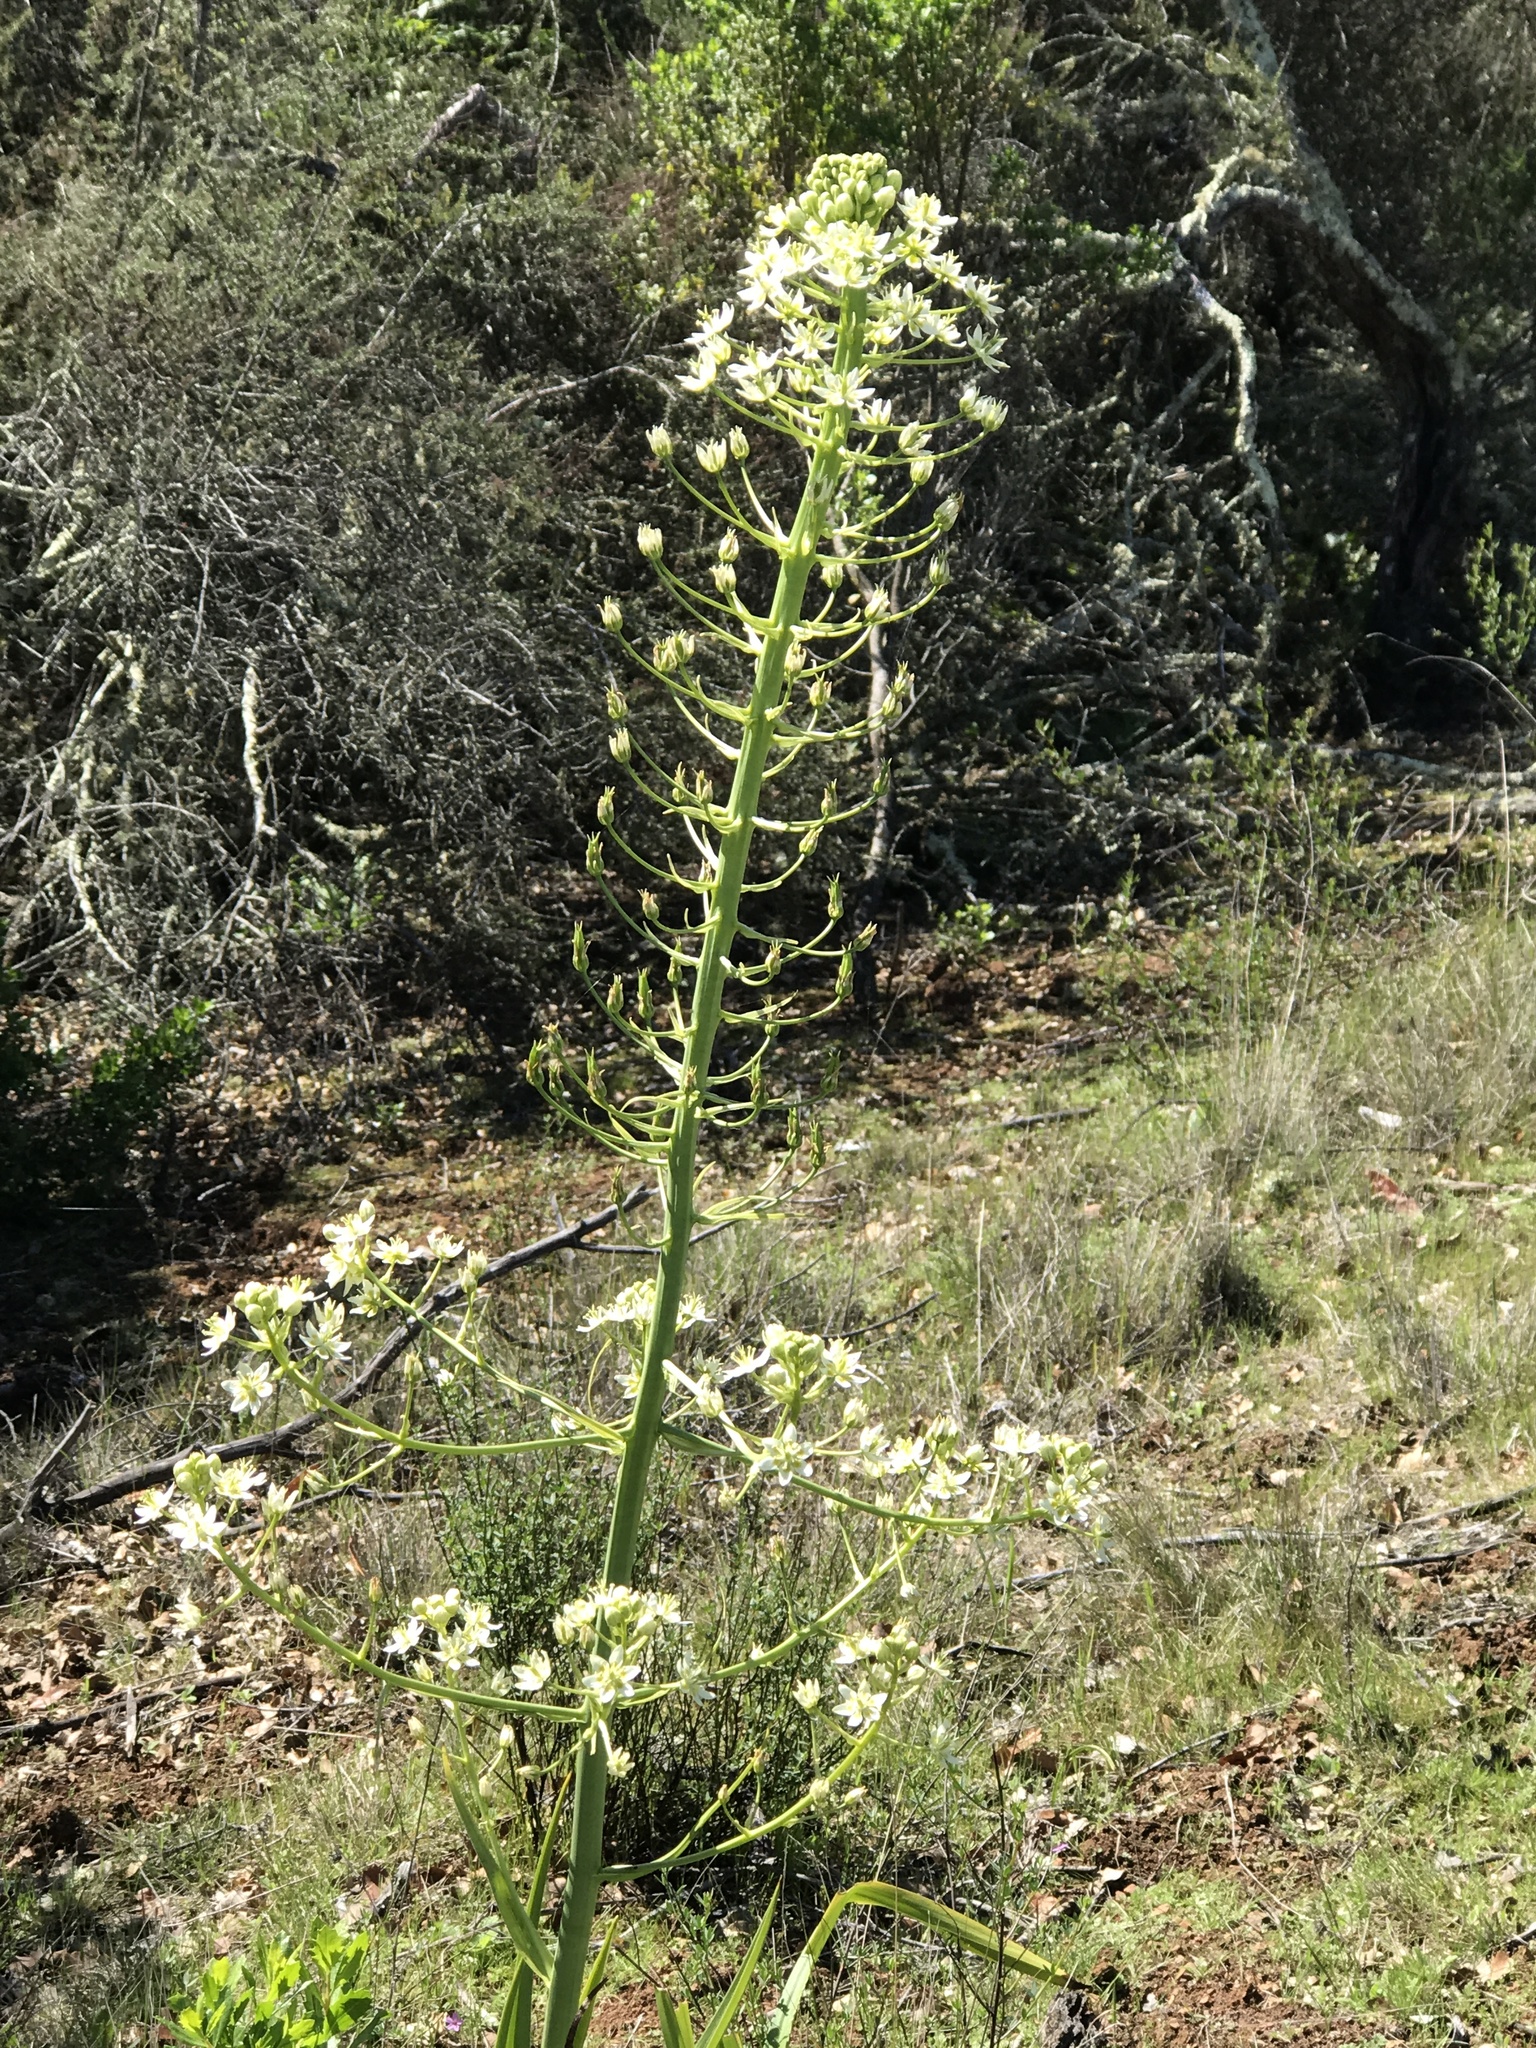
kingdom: Plantae
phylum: Tracheophyta
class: Liliopsida
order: Liliales
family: Melanthiaceae
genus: Toxicoscordion
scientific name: Toxicoscordion fremontii
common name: Fremont's death camas
